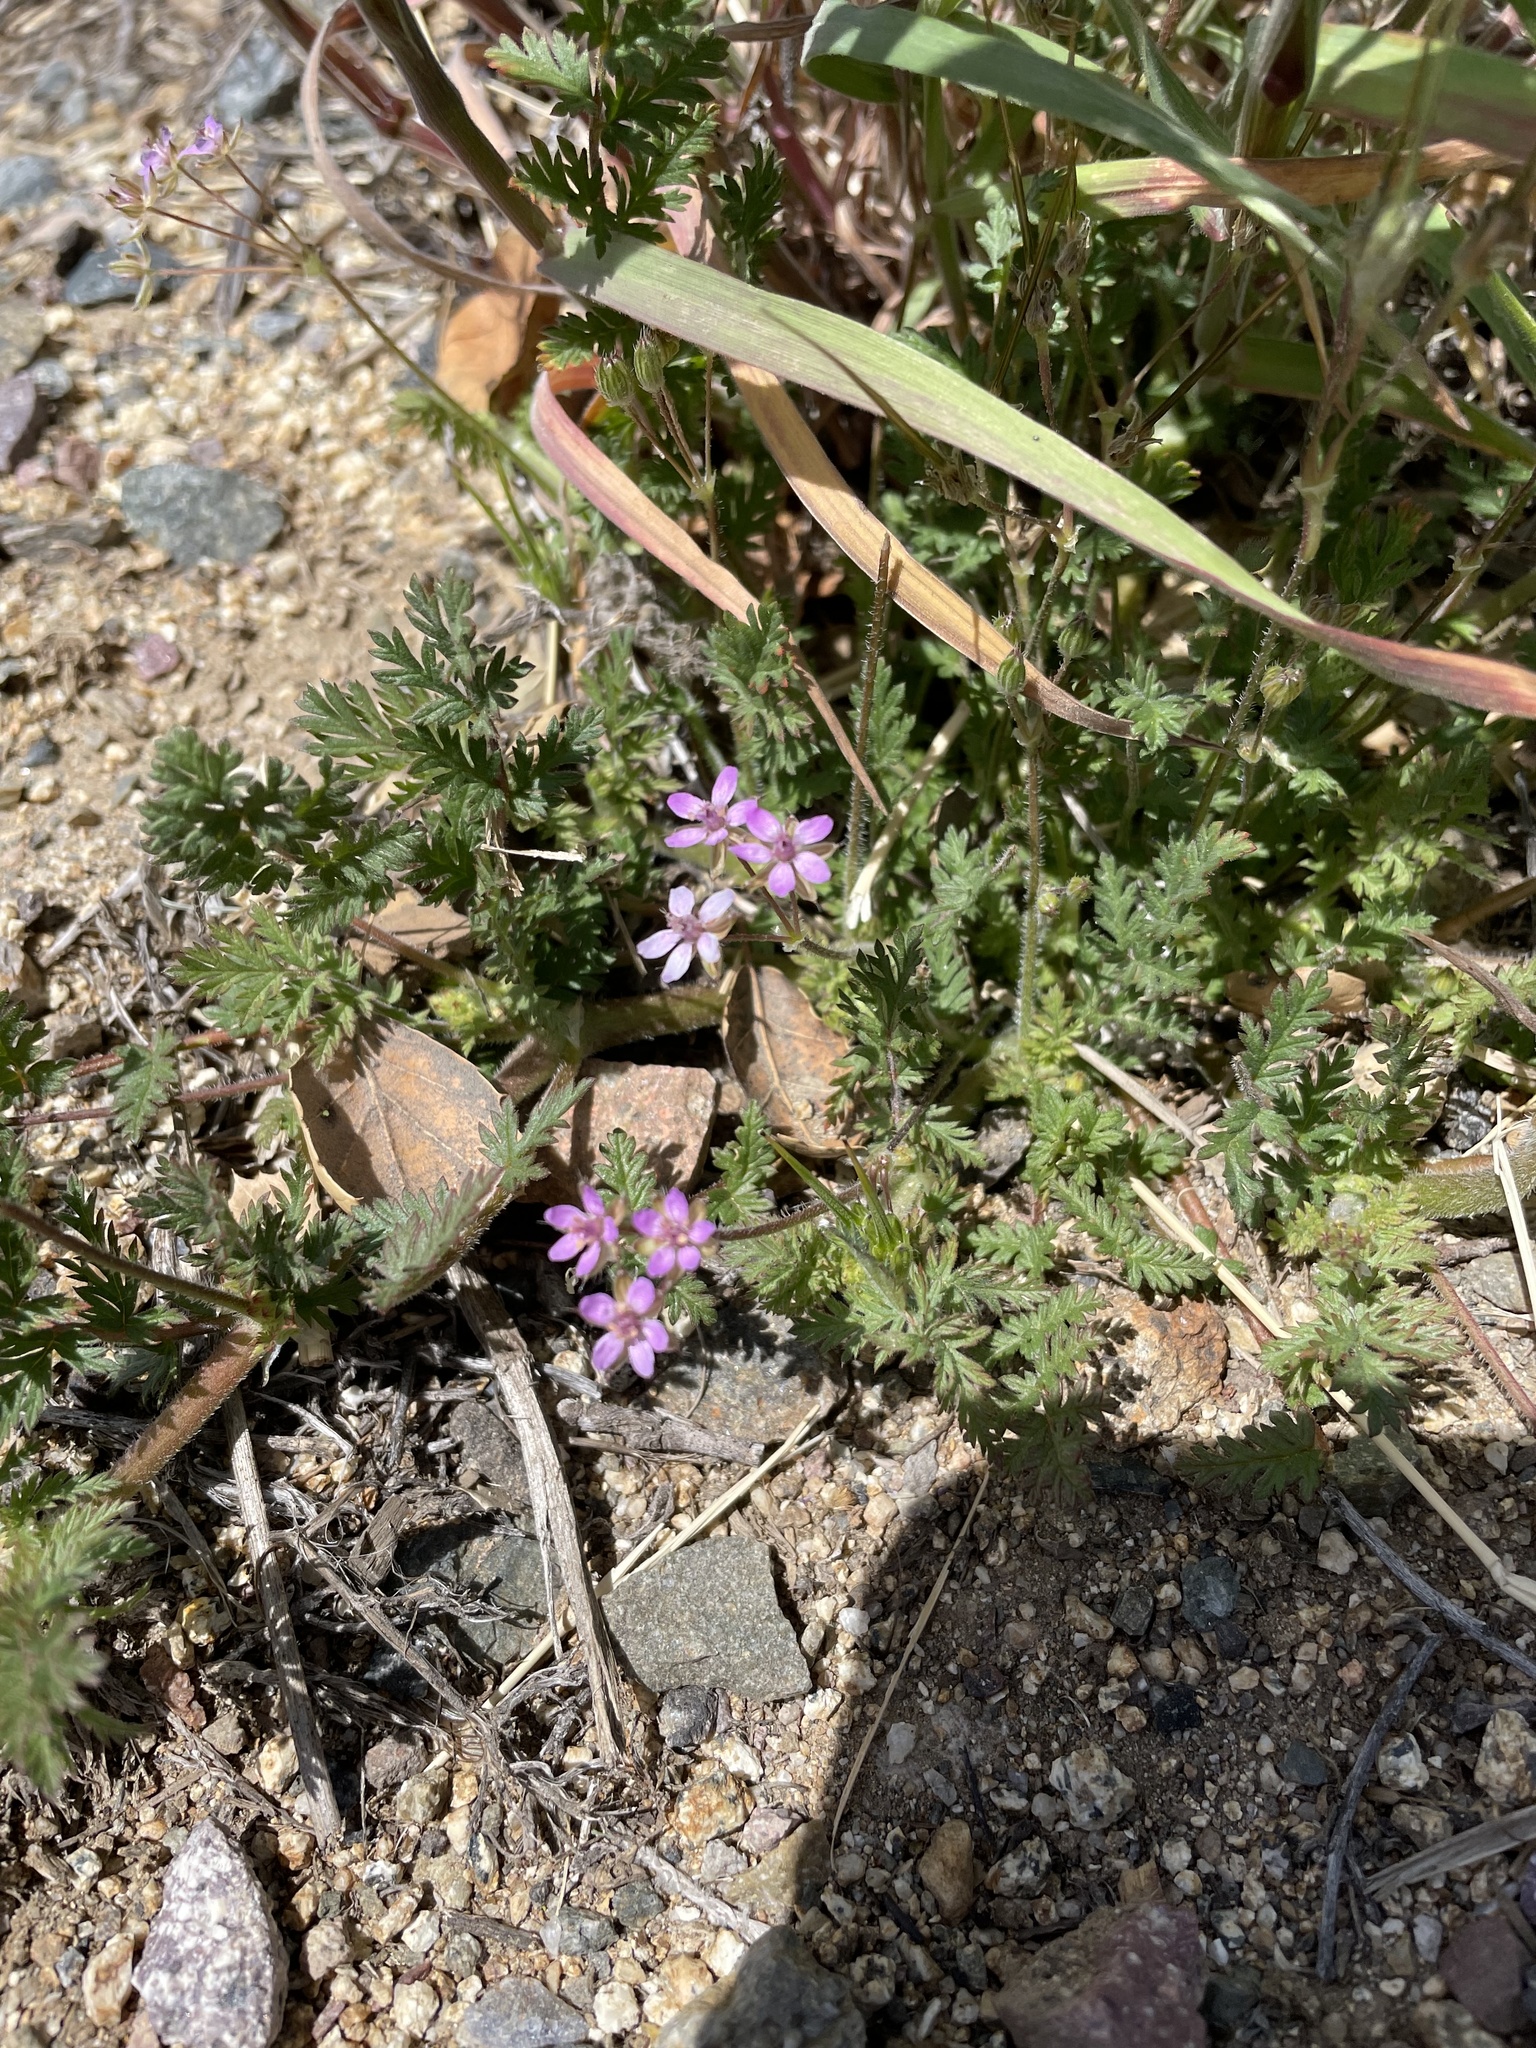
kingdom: Plantae
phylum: Tracheophyta
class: Magnoliopsida
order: Geraniales
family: Geraniaceae
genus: Erodium
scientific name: Erodium cicutarium
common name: Common stork's-bill
